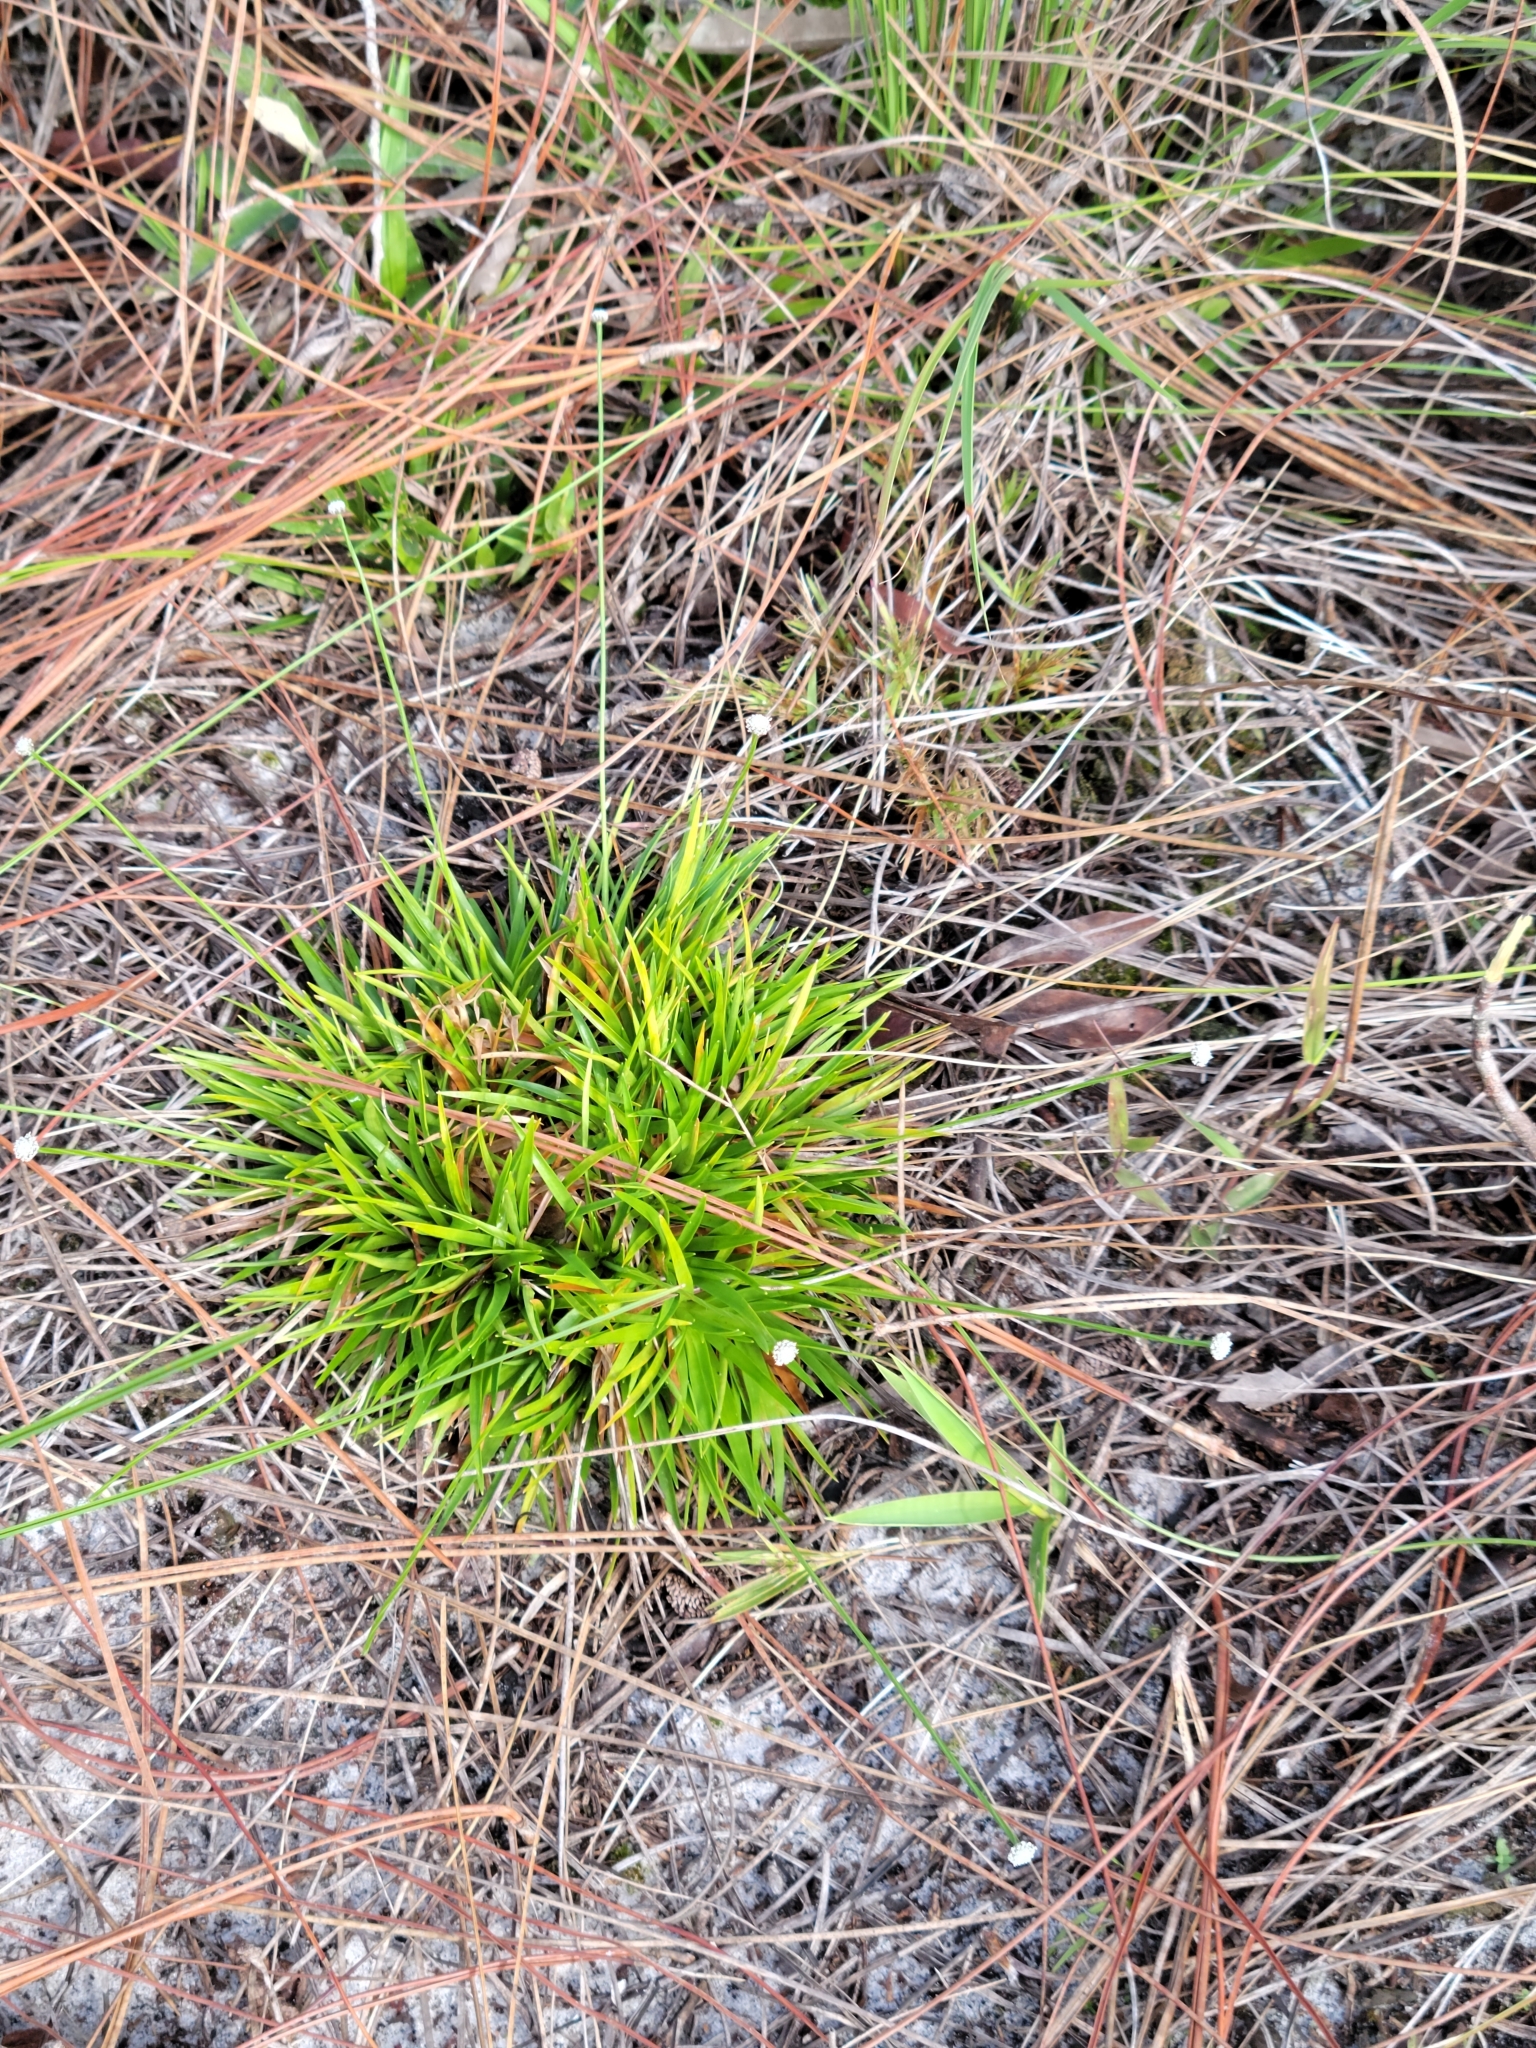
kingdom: Plantae
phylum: Tracheophyta
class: Liliopsida
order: Poales
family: Eriocaulaceae
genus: Paepalanthus
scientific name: Paepalanthus anceps
